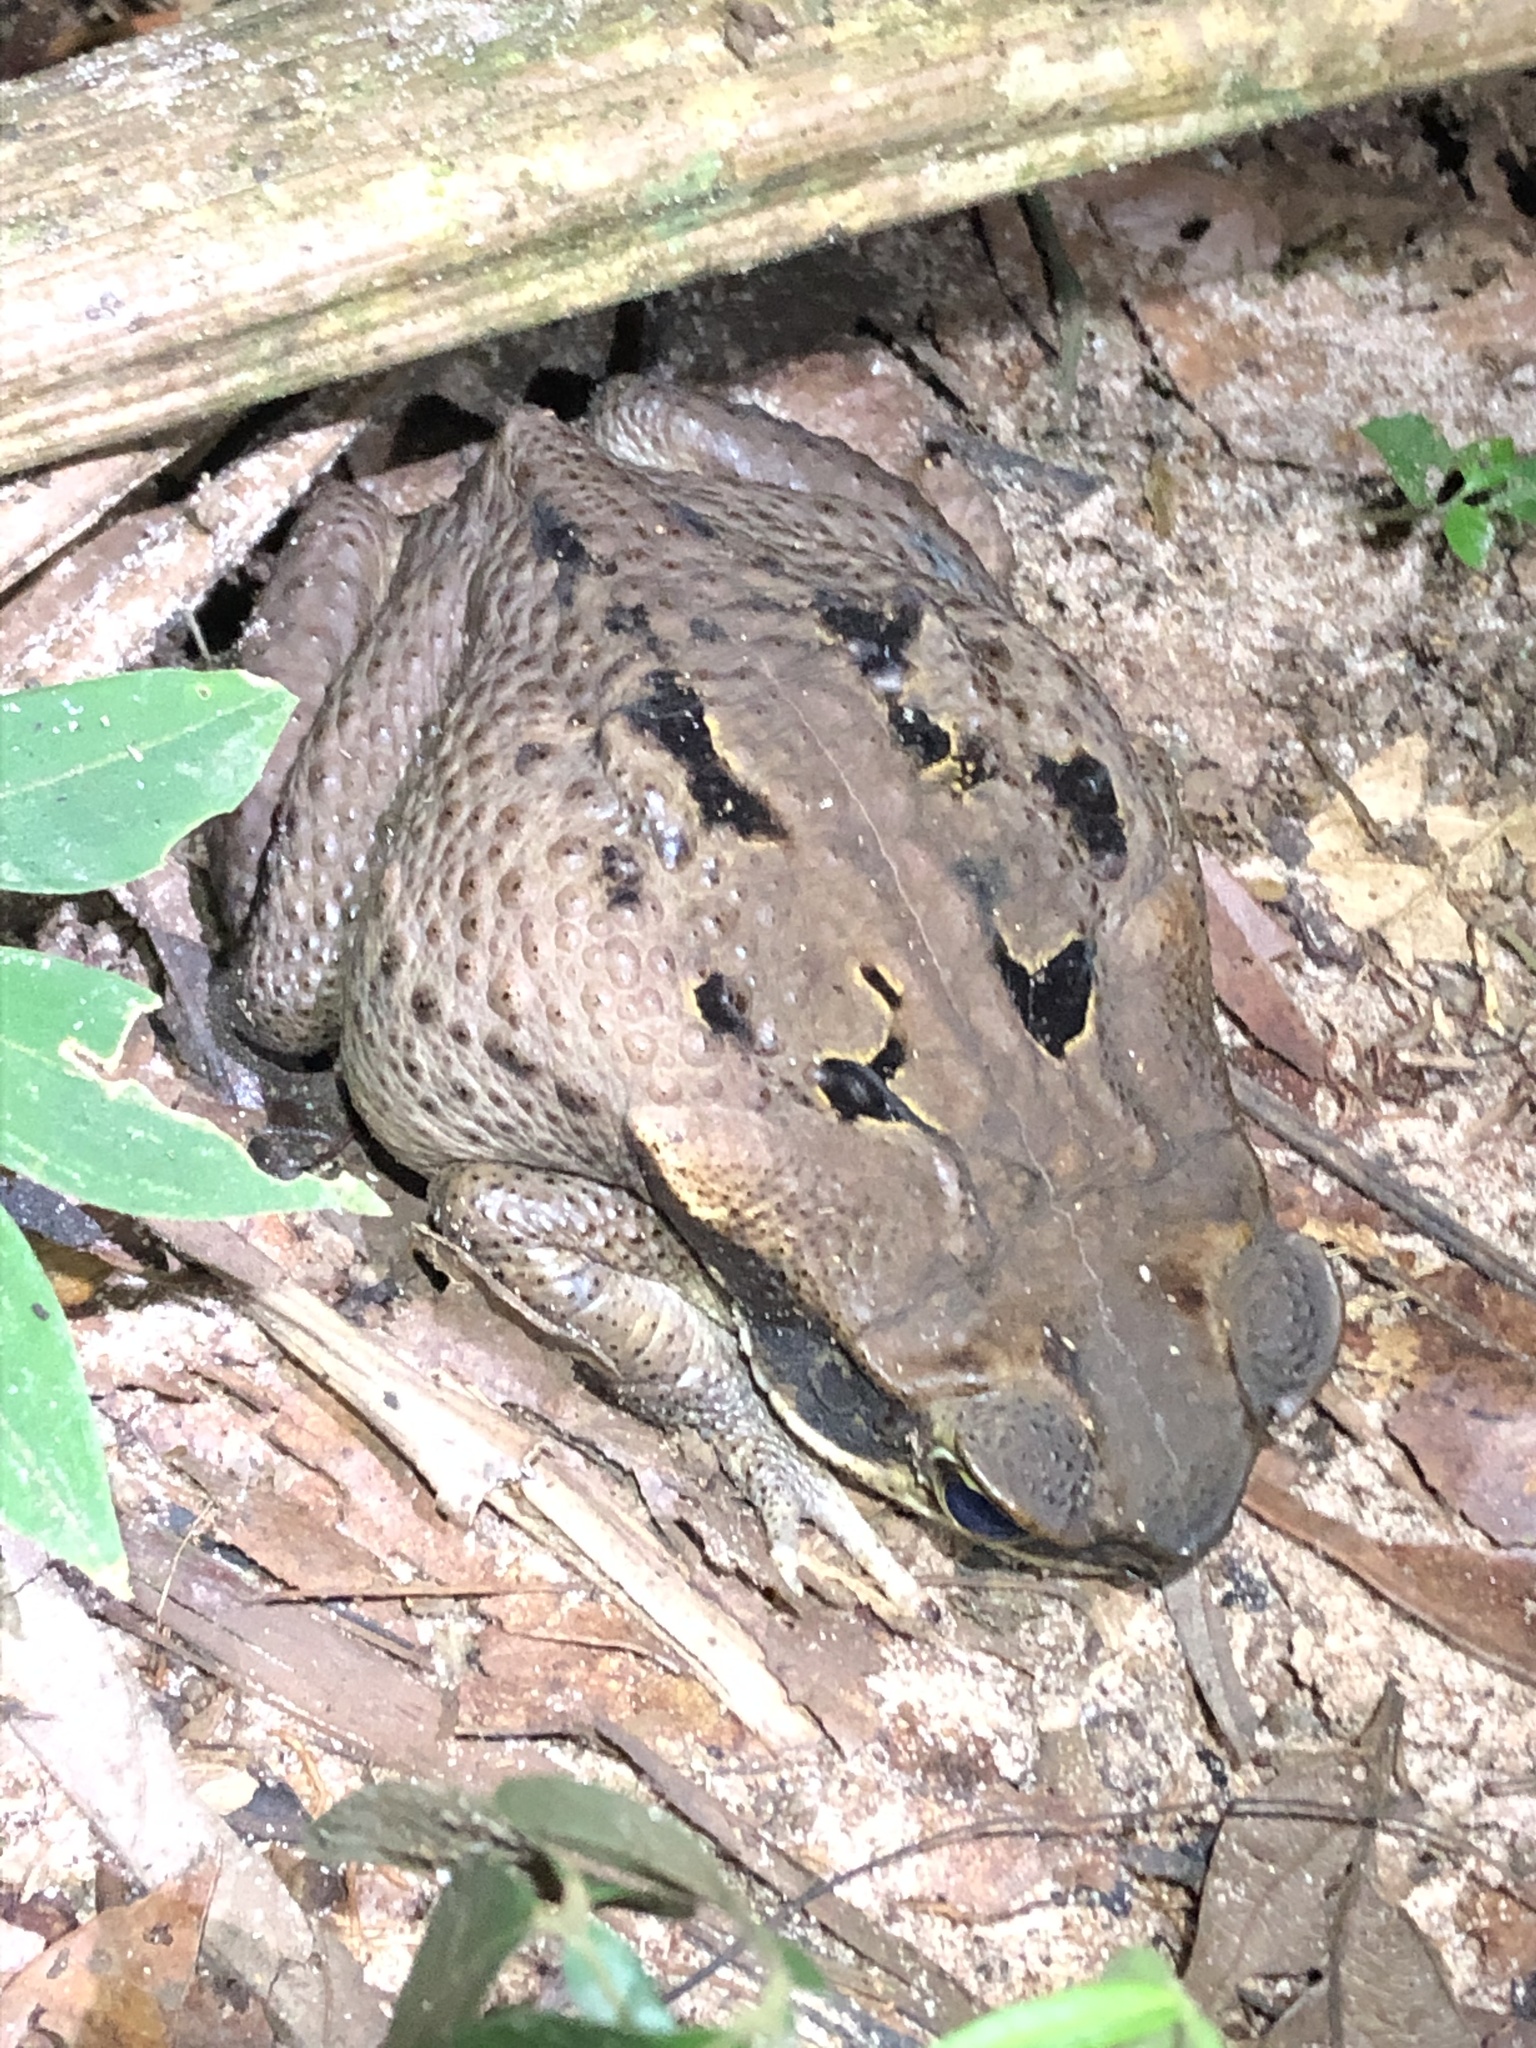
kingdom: Animalia
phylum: Chordata
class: Amphibia
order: Anura
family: Bufonidae
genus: Rhinella
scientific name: Rhinella marina
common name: Cane toad
